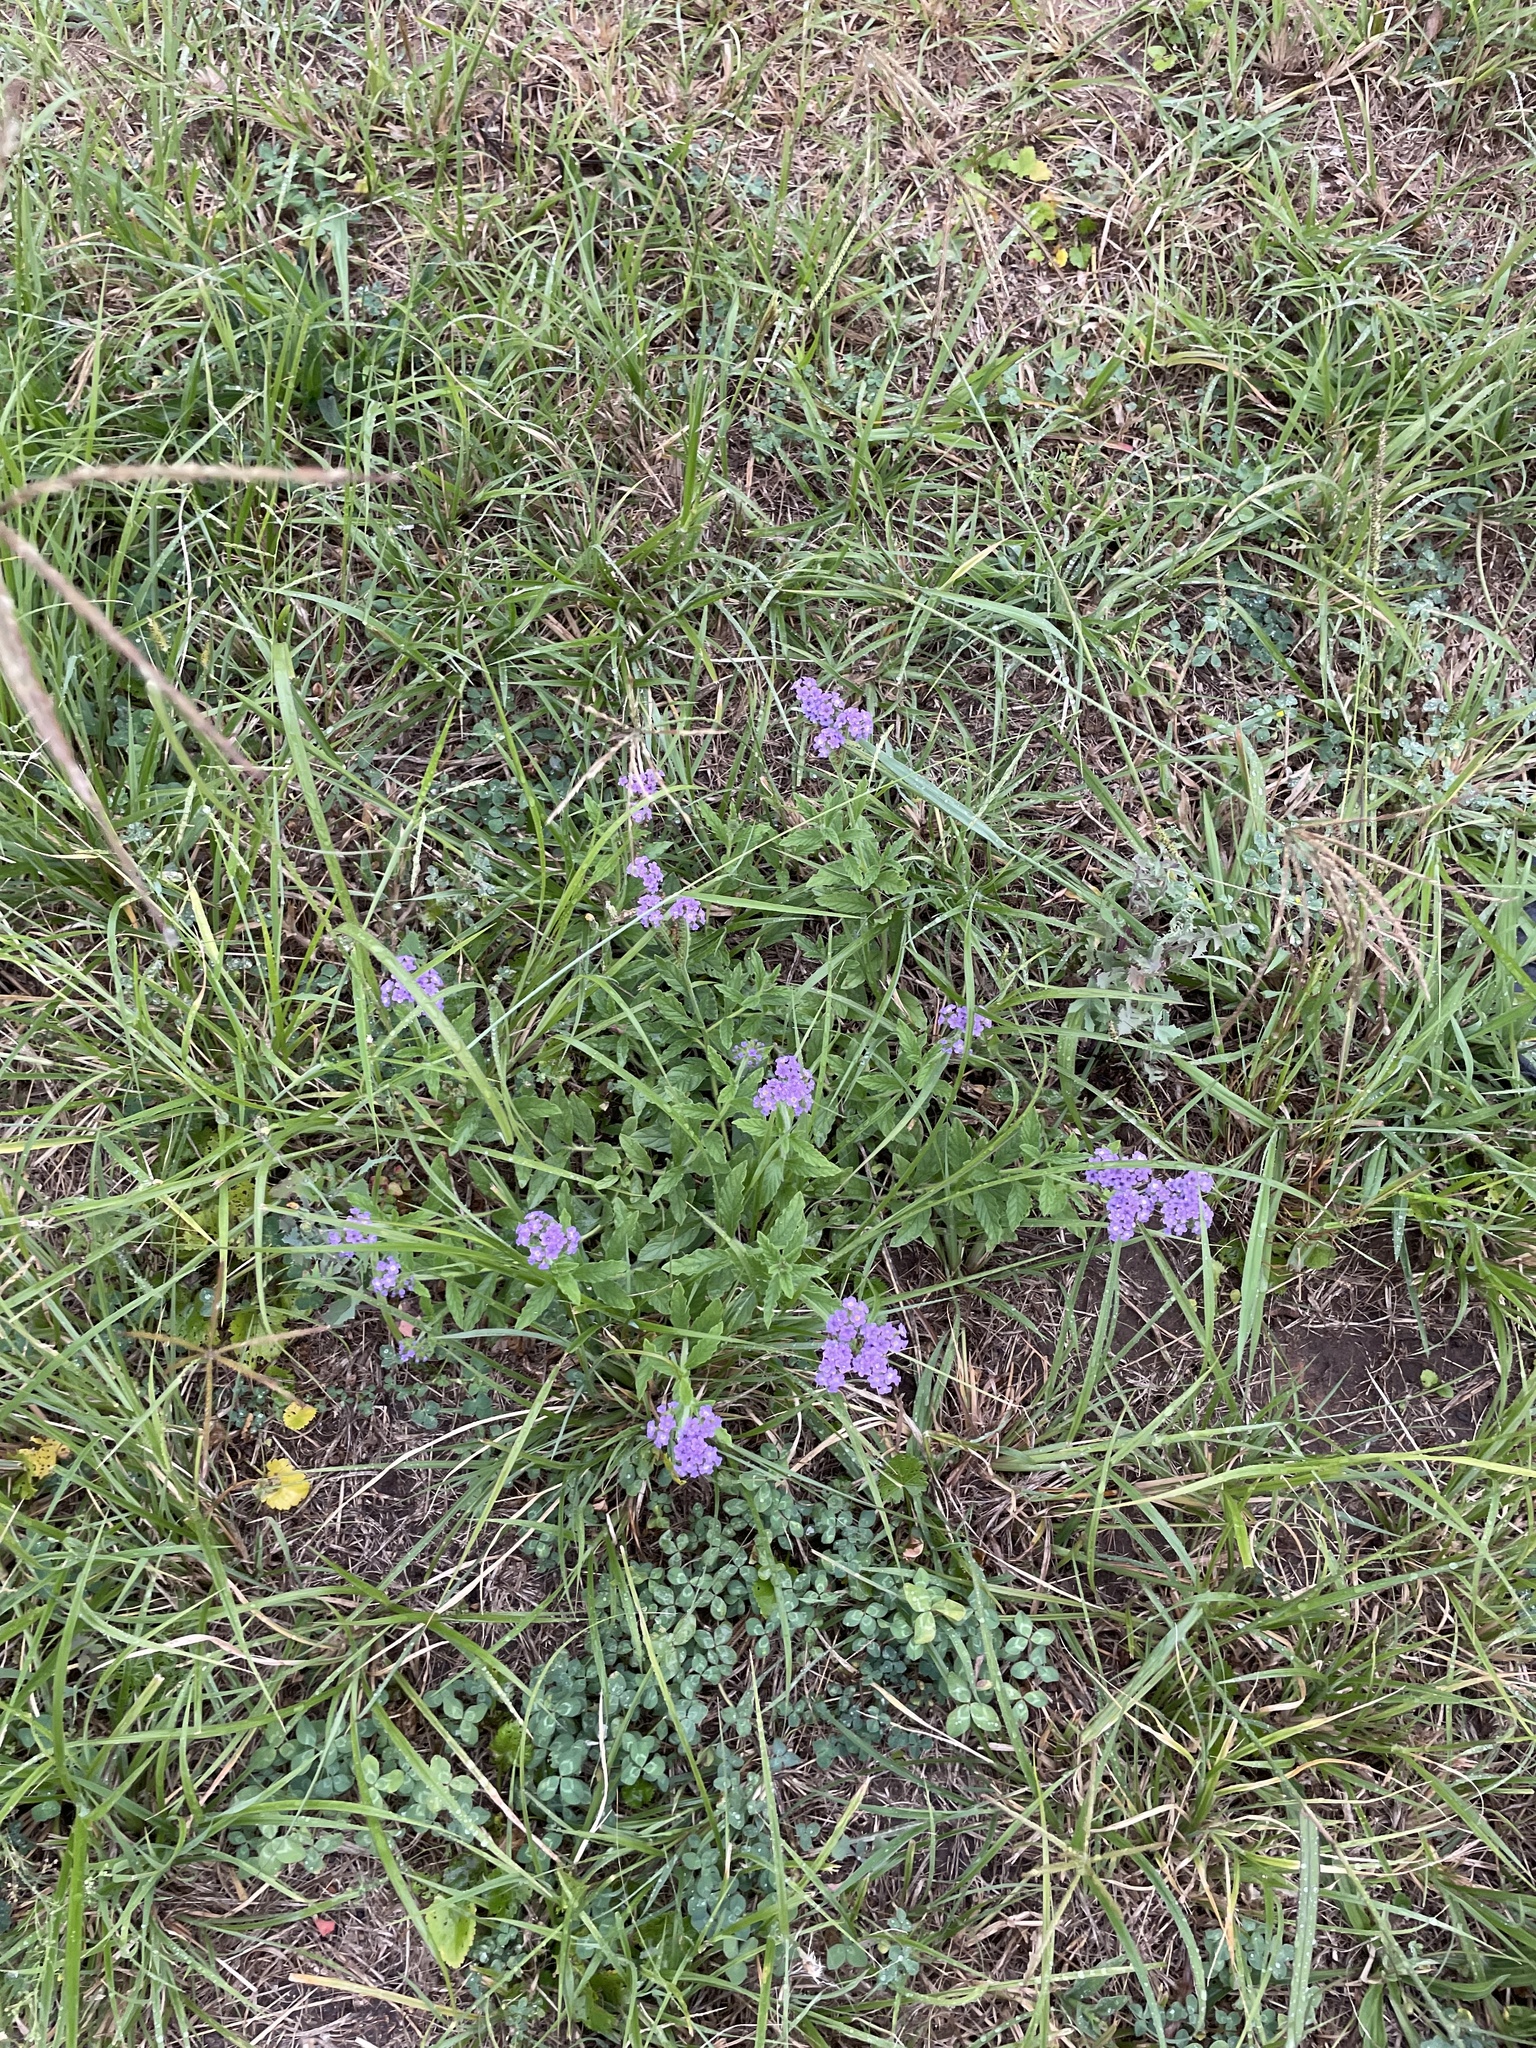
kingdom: Plantae
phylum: Tracheophyta
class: Magnoliopsida
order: Boraginales
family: Heliotropiaceae
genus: Heliotropium
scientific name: Heliotropium amplexicaule
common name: Clasping heliotrope
